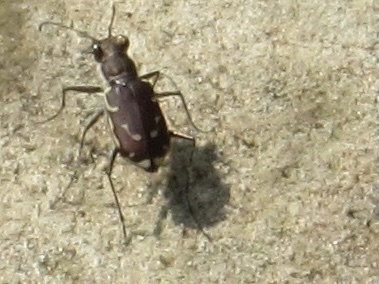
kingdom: Animalia
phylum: Arthropoda
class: Insecta
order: Coleoptera
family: Carabidae
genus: Cicindela
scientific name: Cicindela repanda
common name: Bronzed tiger beetle
